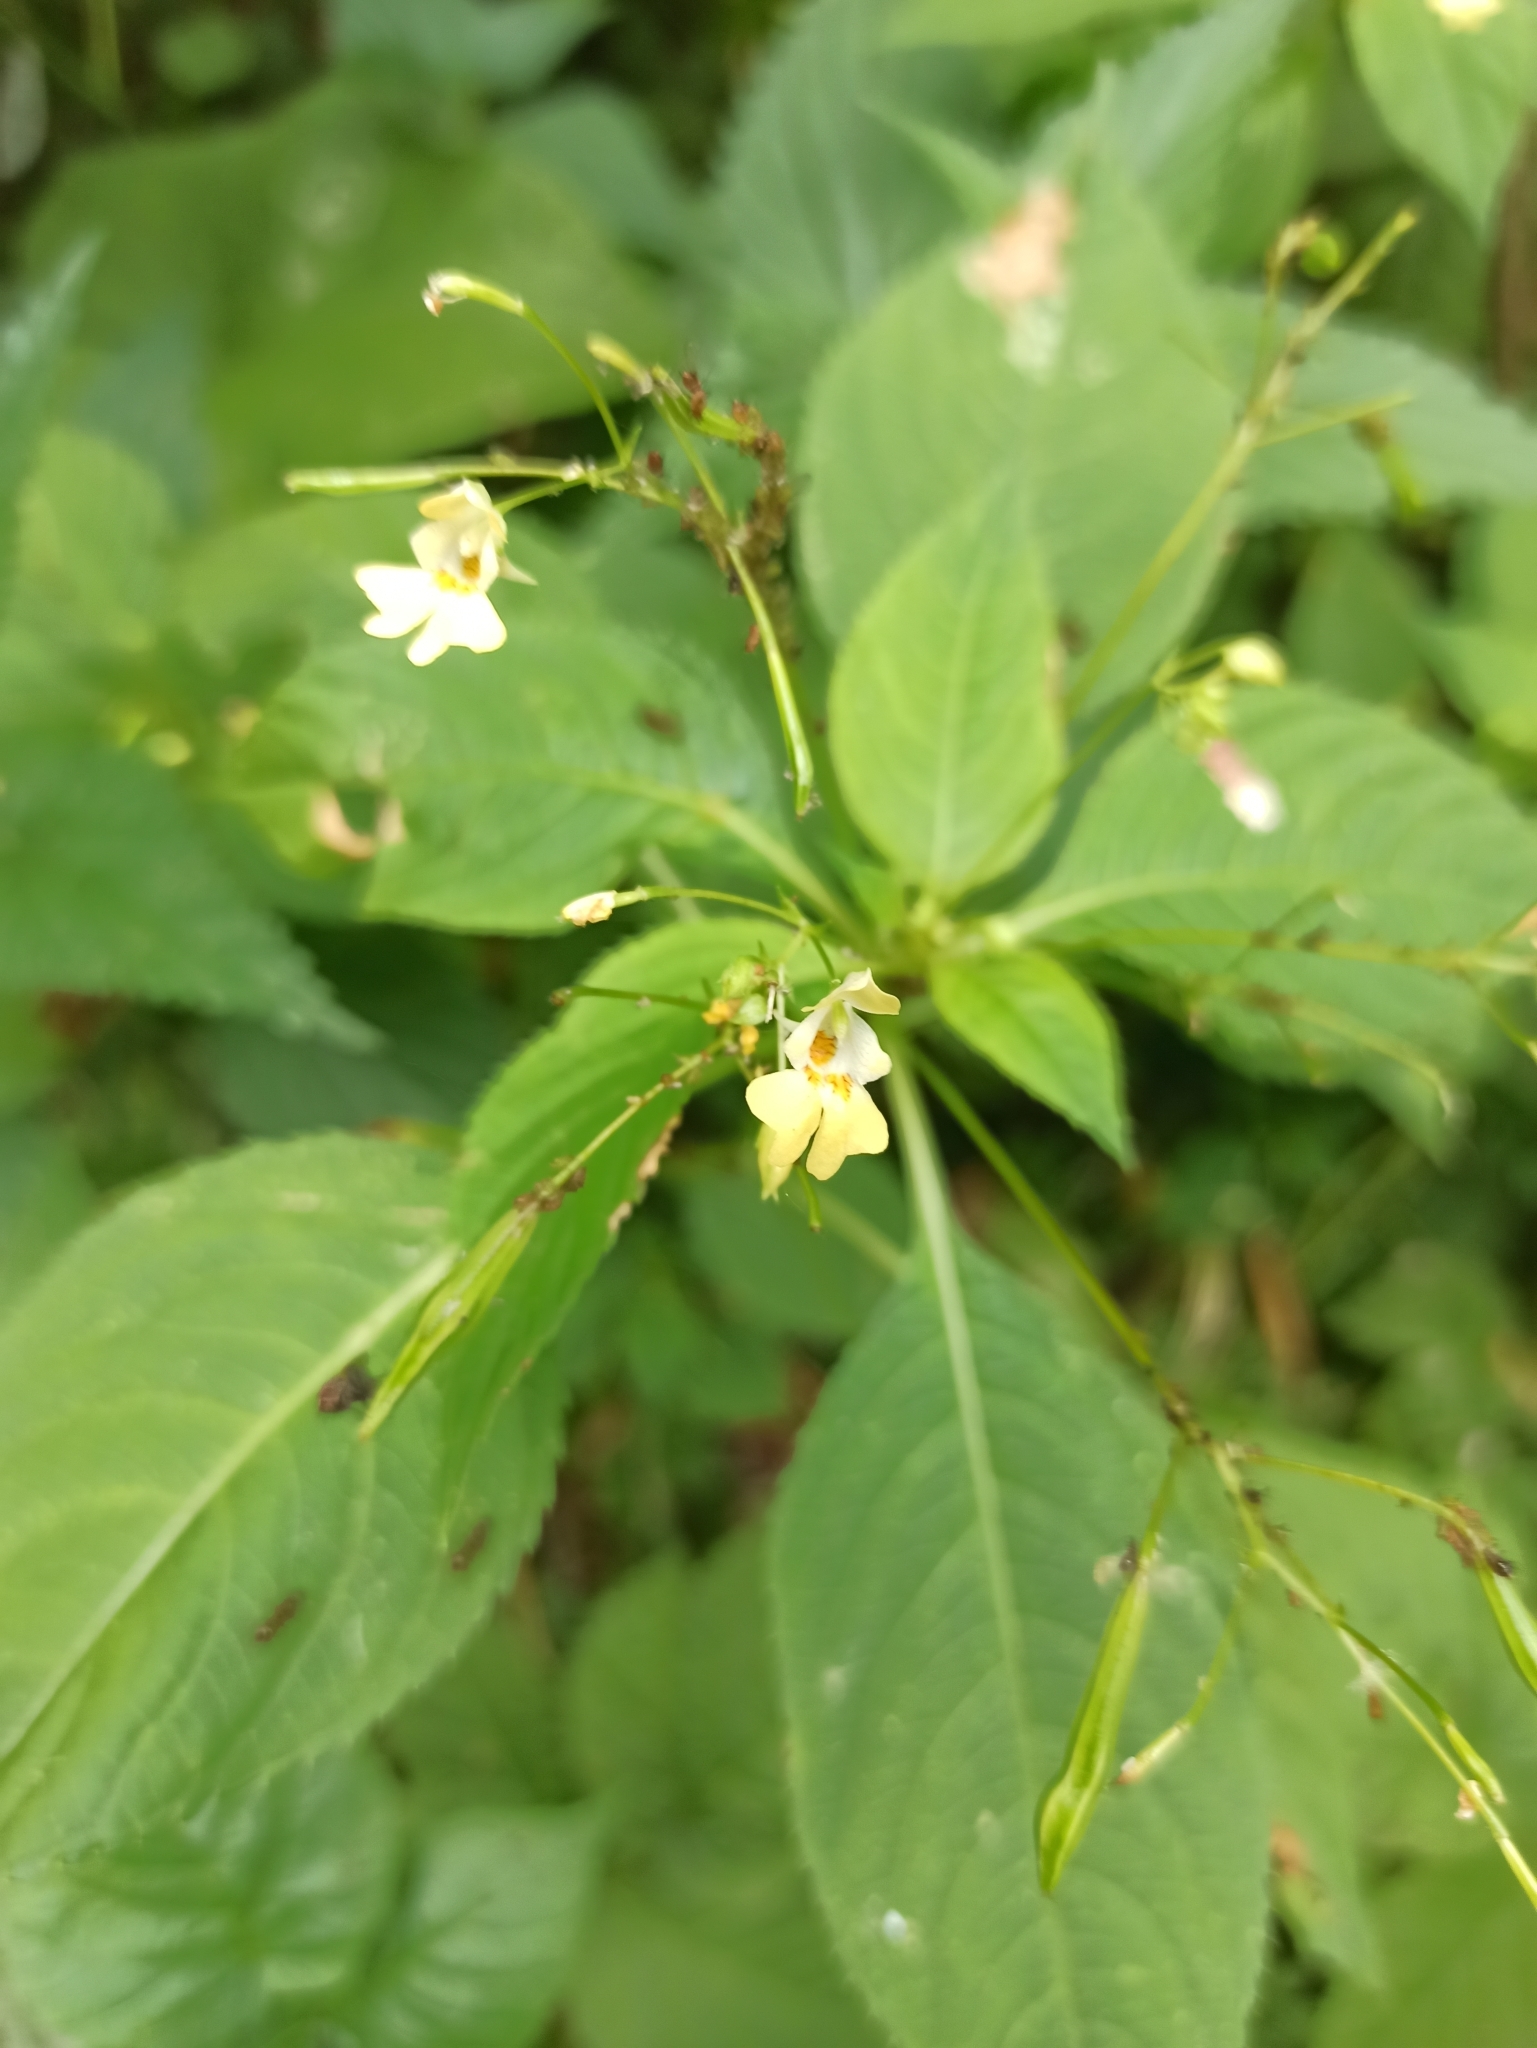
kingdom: Plantae
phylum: Tracheophyta
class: Magnoliopsida
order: Ericales
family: Balsaminaceae
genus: Impatiens
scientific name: Impatiens parviflora
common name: Small balsam
